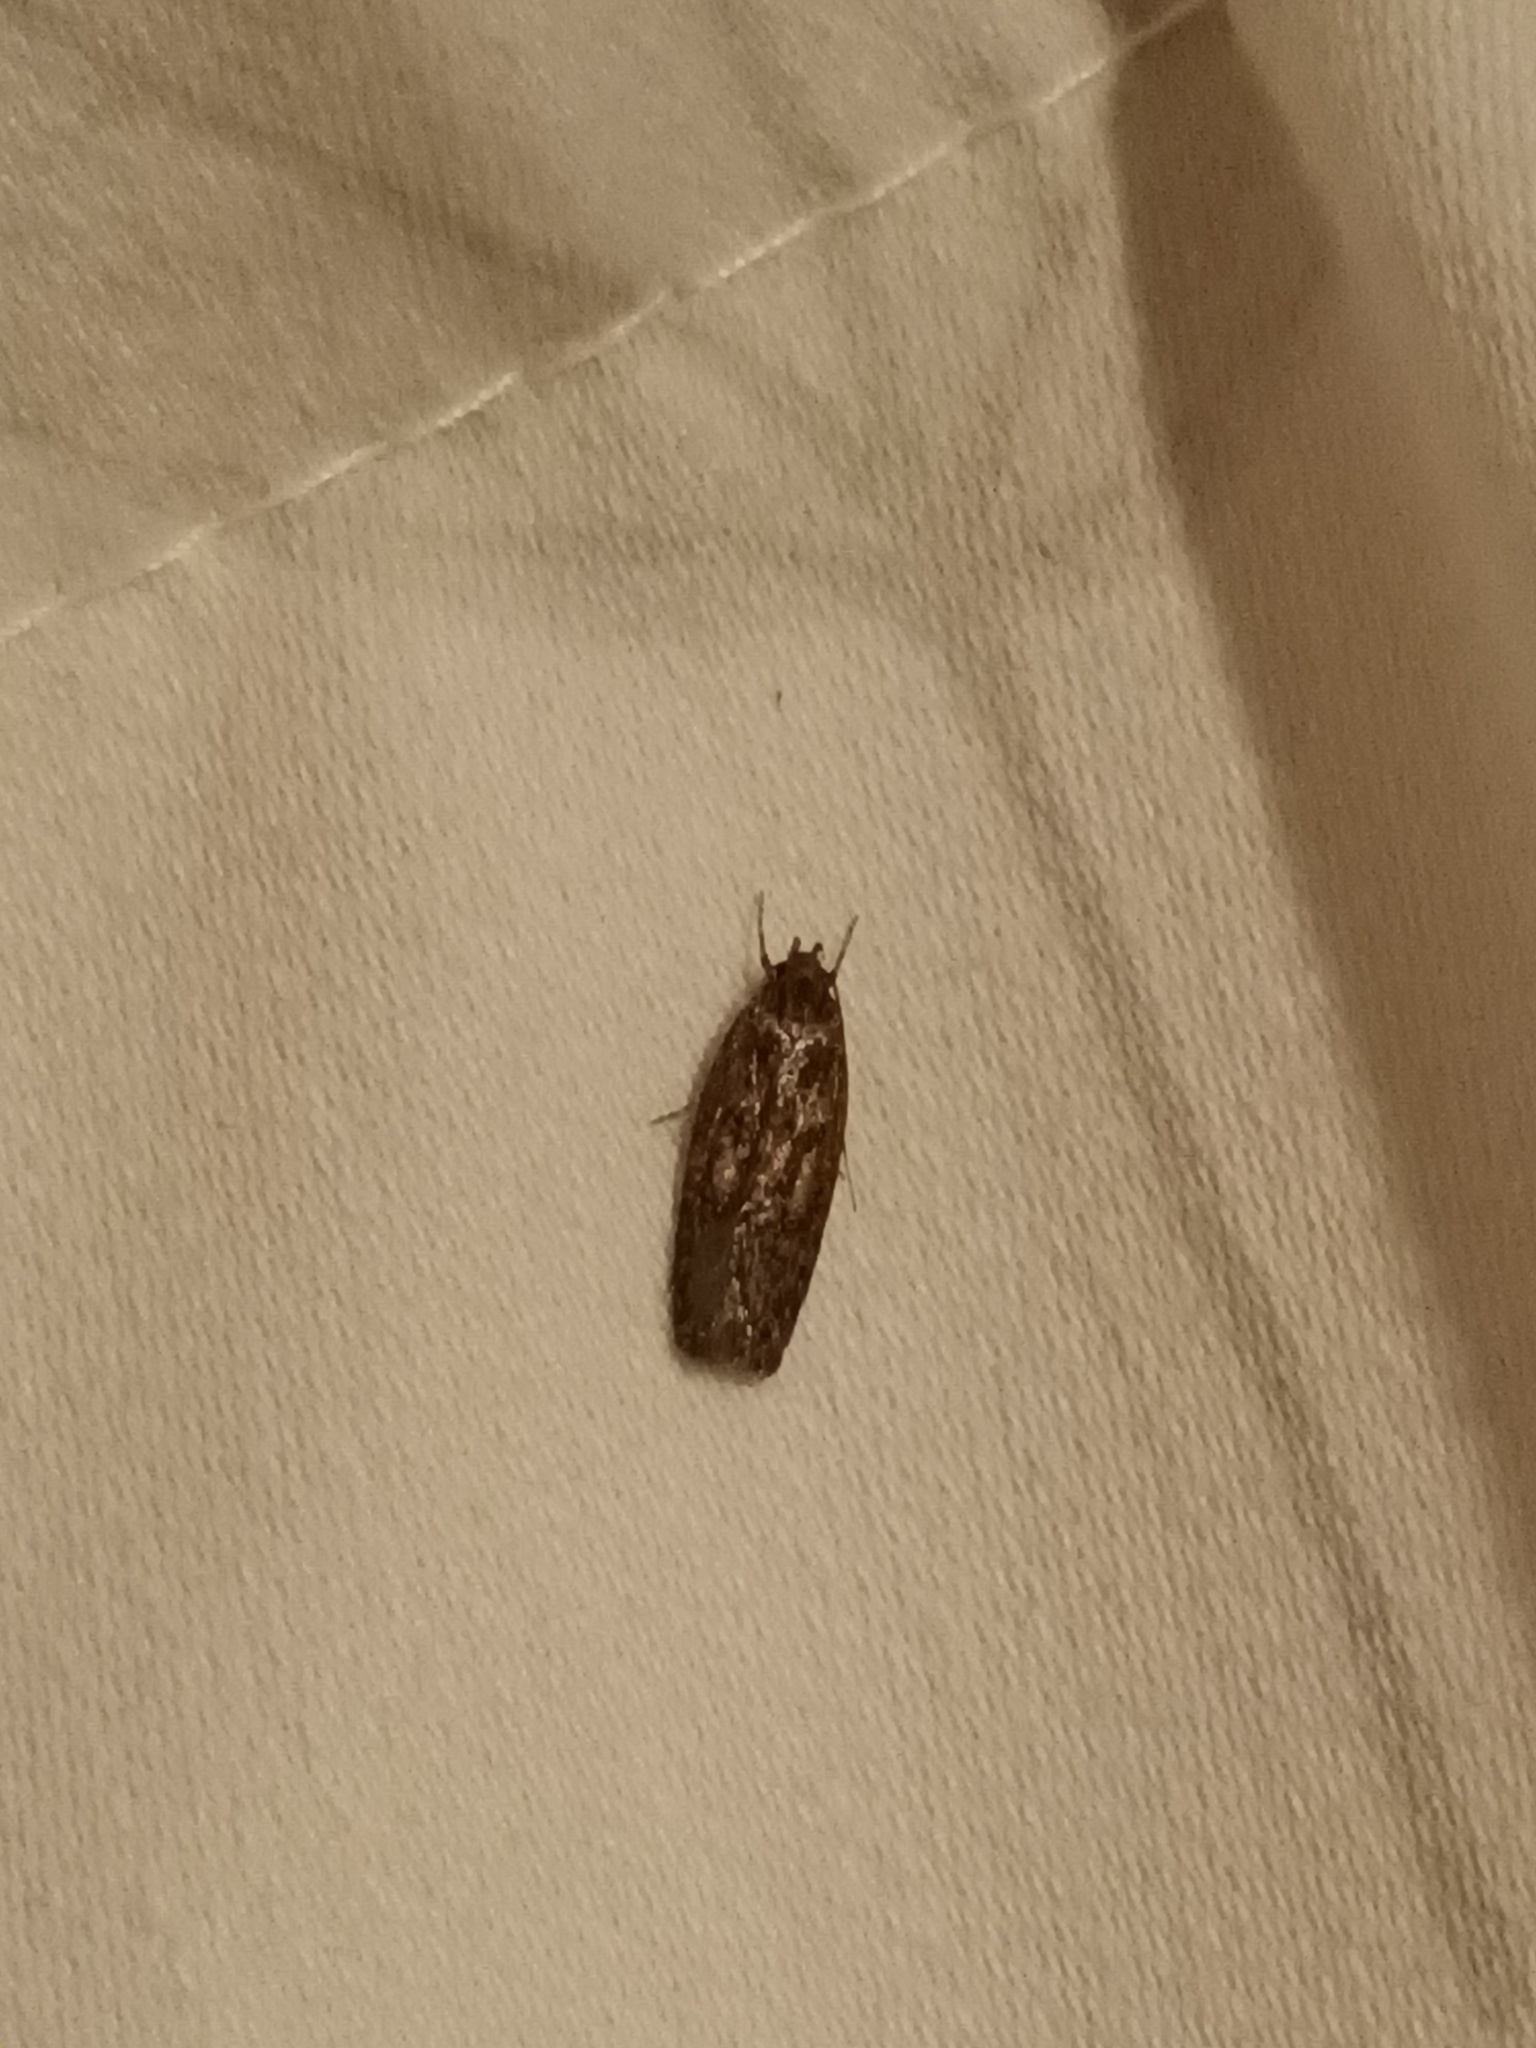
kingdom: Animalia
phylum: Arthropoda
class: Insecta
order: Lepidoptera
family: Oecophoridae
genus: Hofmannophila
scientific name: Hofmannophila pseudospretella
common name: Brown house moth
